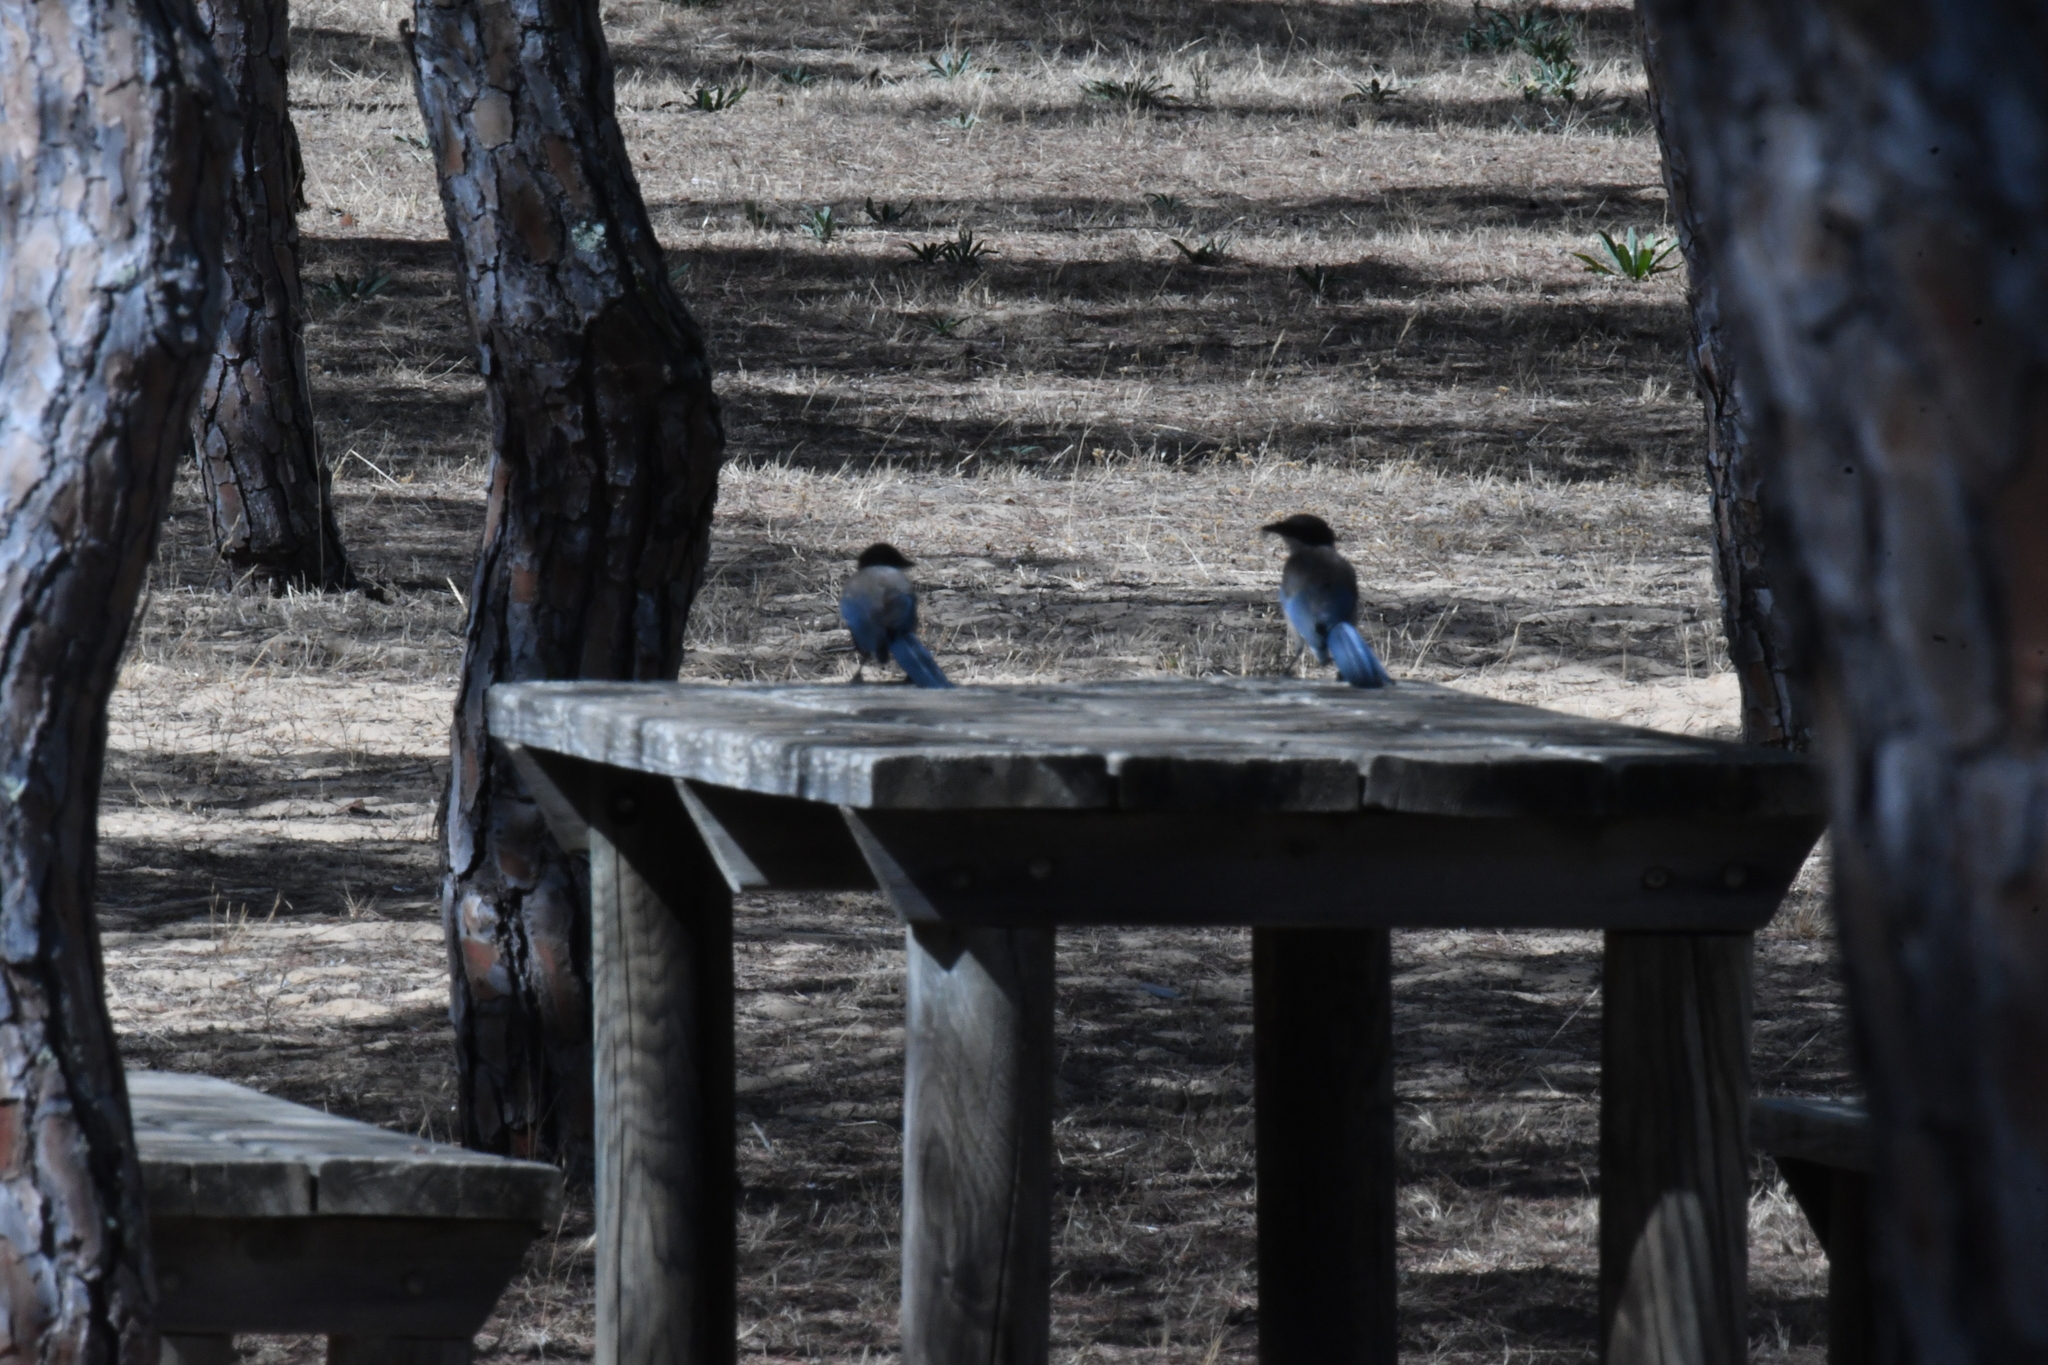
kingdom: Animalia
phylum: Chordata
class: Aves
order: Passeriformes
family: Corvidae
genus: Cyanopica
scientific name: Cyanopica cooki
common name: Iberian magpie
